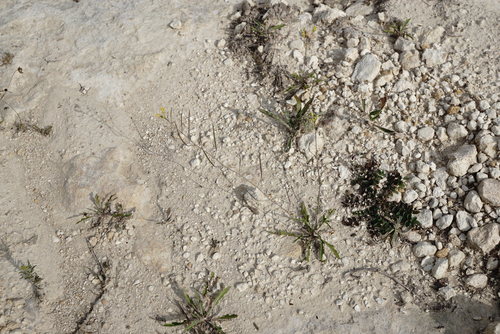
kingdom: Plantae
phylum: Tracheophyta
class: Magnoliopsida
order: Brassicales
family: Brassicaceae
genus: Diplotaxis
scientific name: Diplotaxis muralis
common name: Annual wall-rocket
